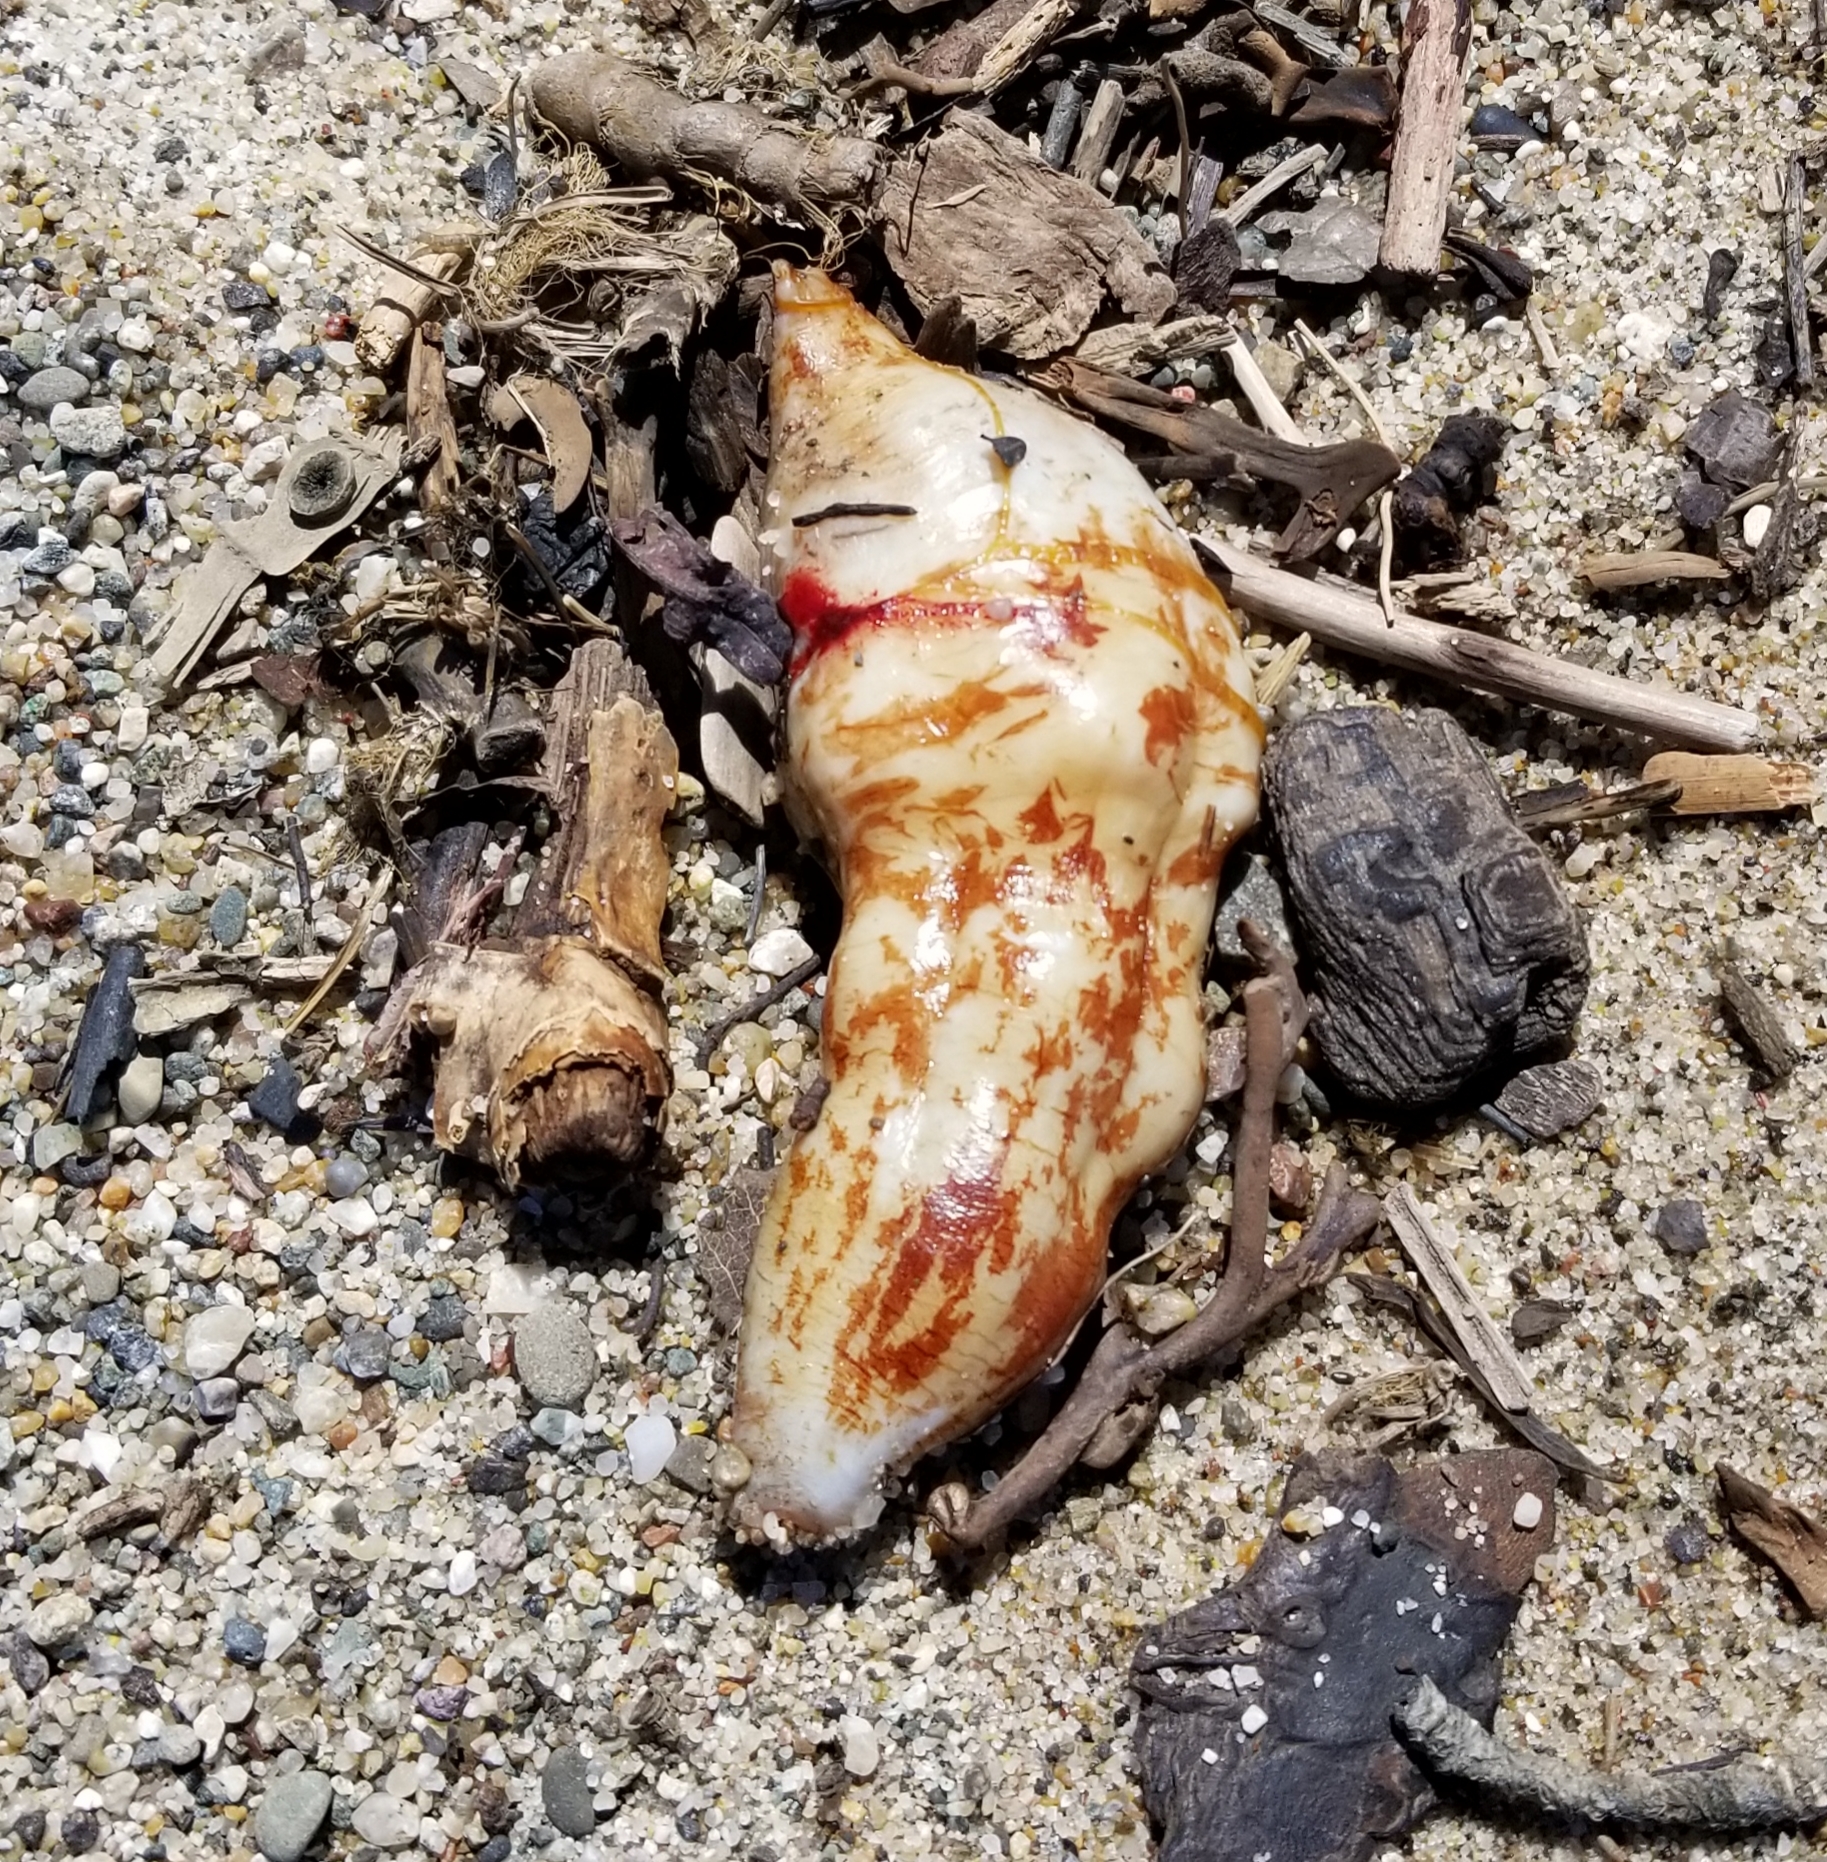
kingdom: Animalia
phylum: Echinodermata
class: Holothuroidea
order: Molpadida
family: Caudinidae
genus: Caudina
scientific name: Caudina arenicola
